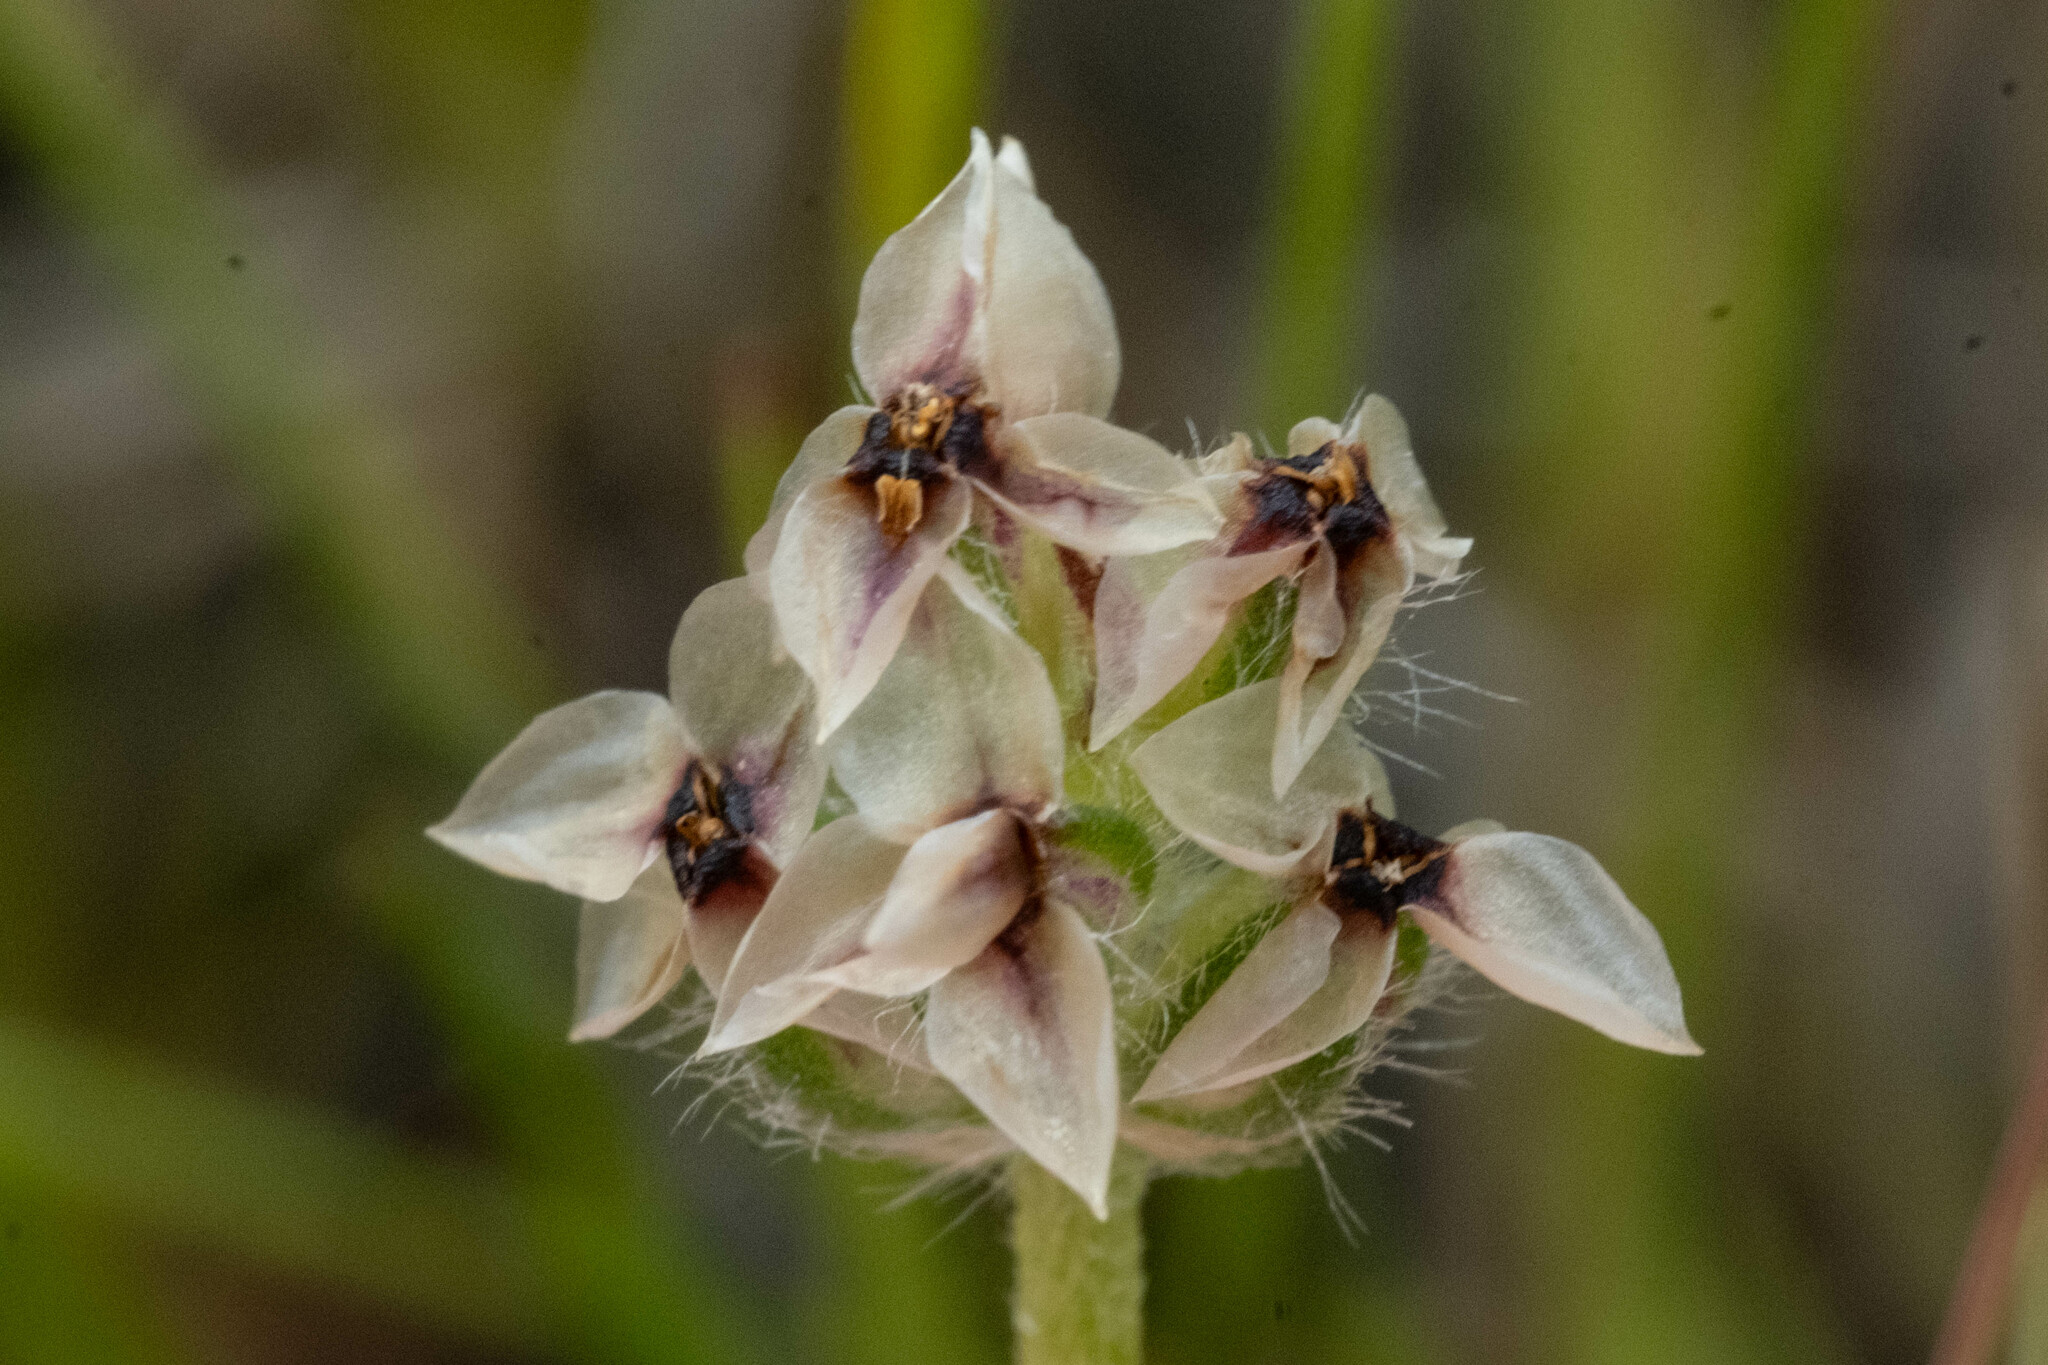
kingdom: Plantae
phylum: Tracheophyta
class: Magnoliopsida
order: Lamiales
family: Plantaginaceae
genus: Plantago
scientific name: Plantago erecta
